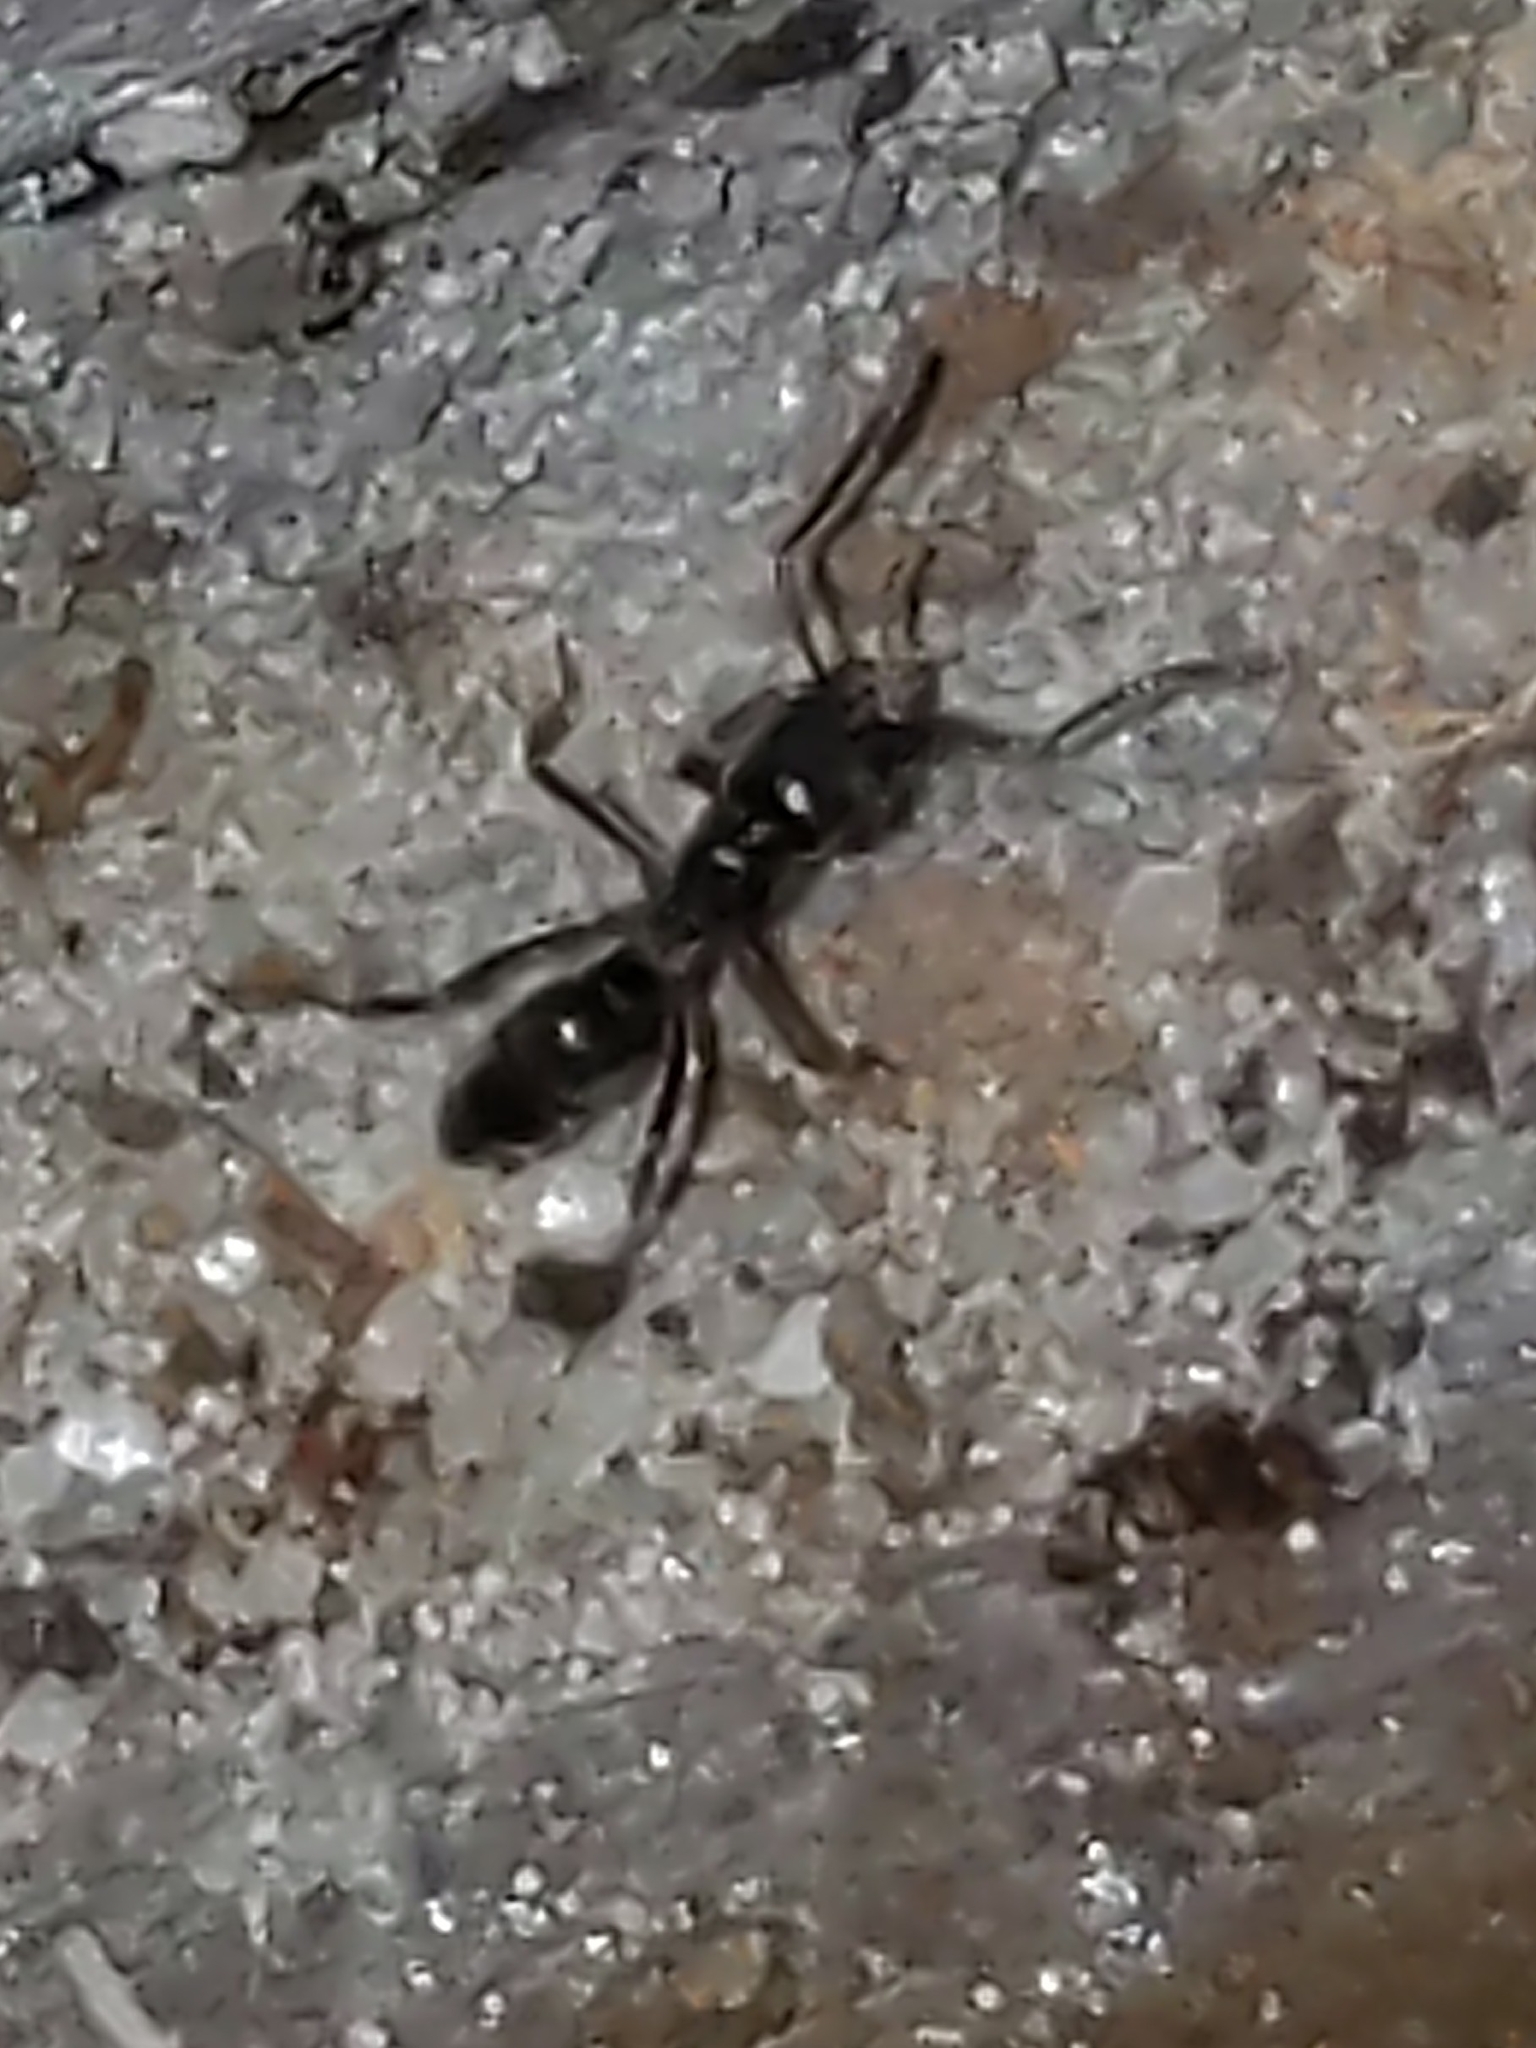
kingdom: Animalia
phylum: Arthropoda
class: Insecta
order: Hymenoptera
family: Formicidae
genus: Pachycondyla
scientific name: Pachycondyla chinensis
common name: Asian needle ant
